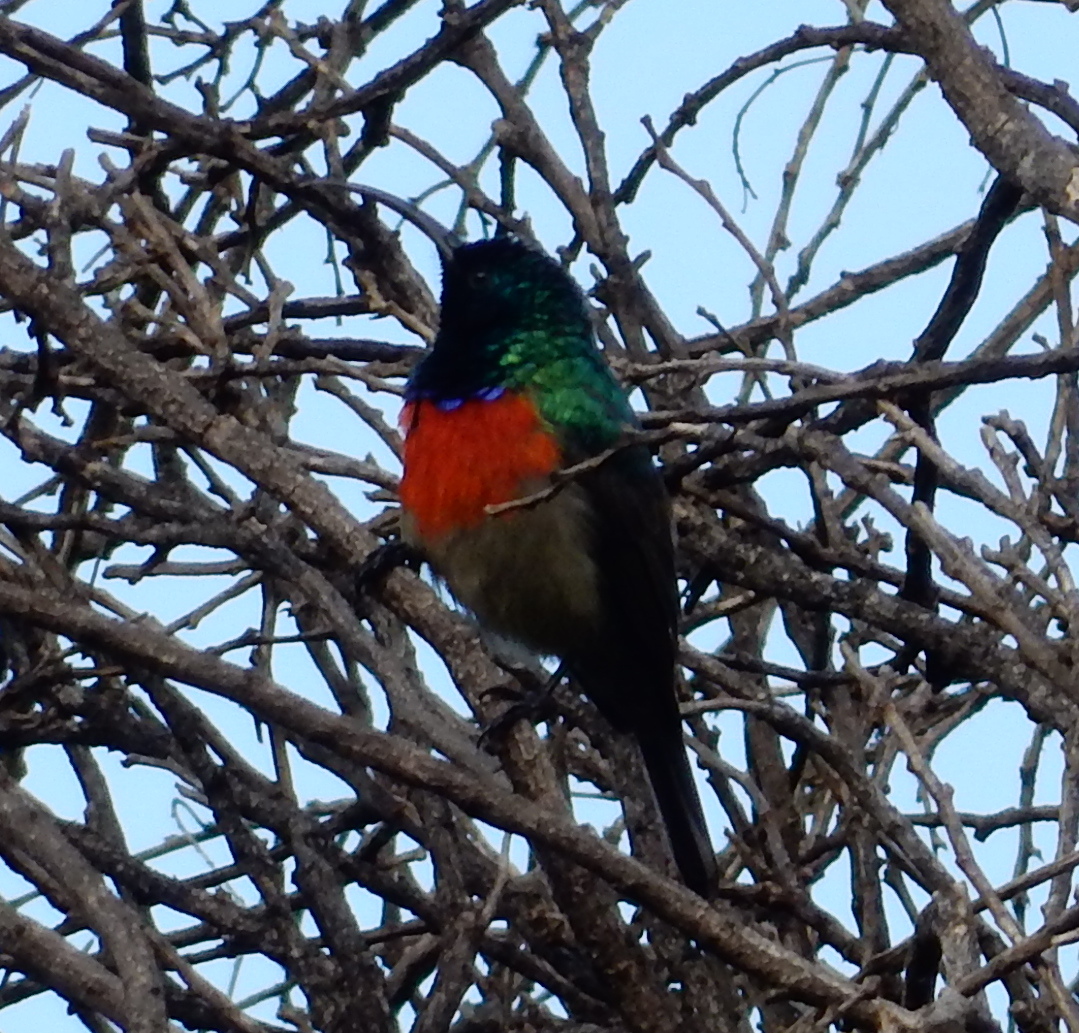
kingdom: Animalia
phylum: Chordata
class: Aves
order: Passeriformes
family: Nectariniidae
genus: Cinnyris
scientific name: Cinnyris afer
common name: Greater double-collared sunbird
